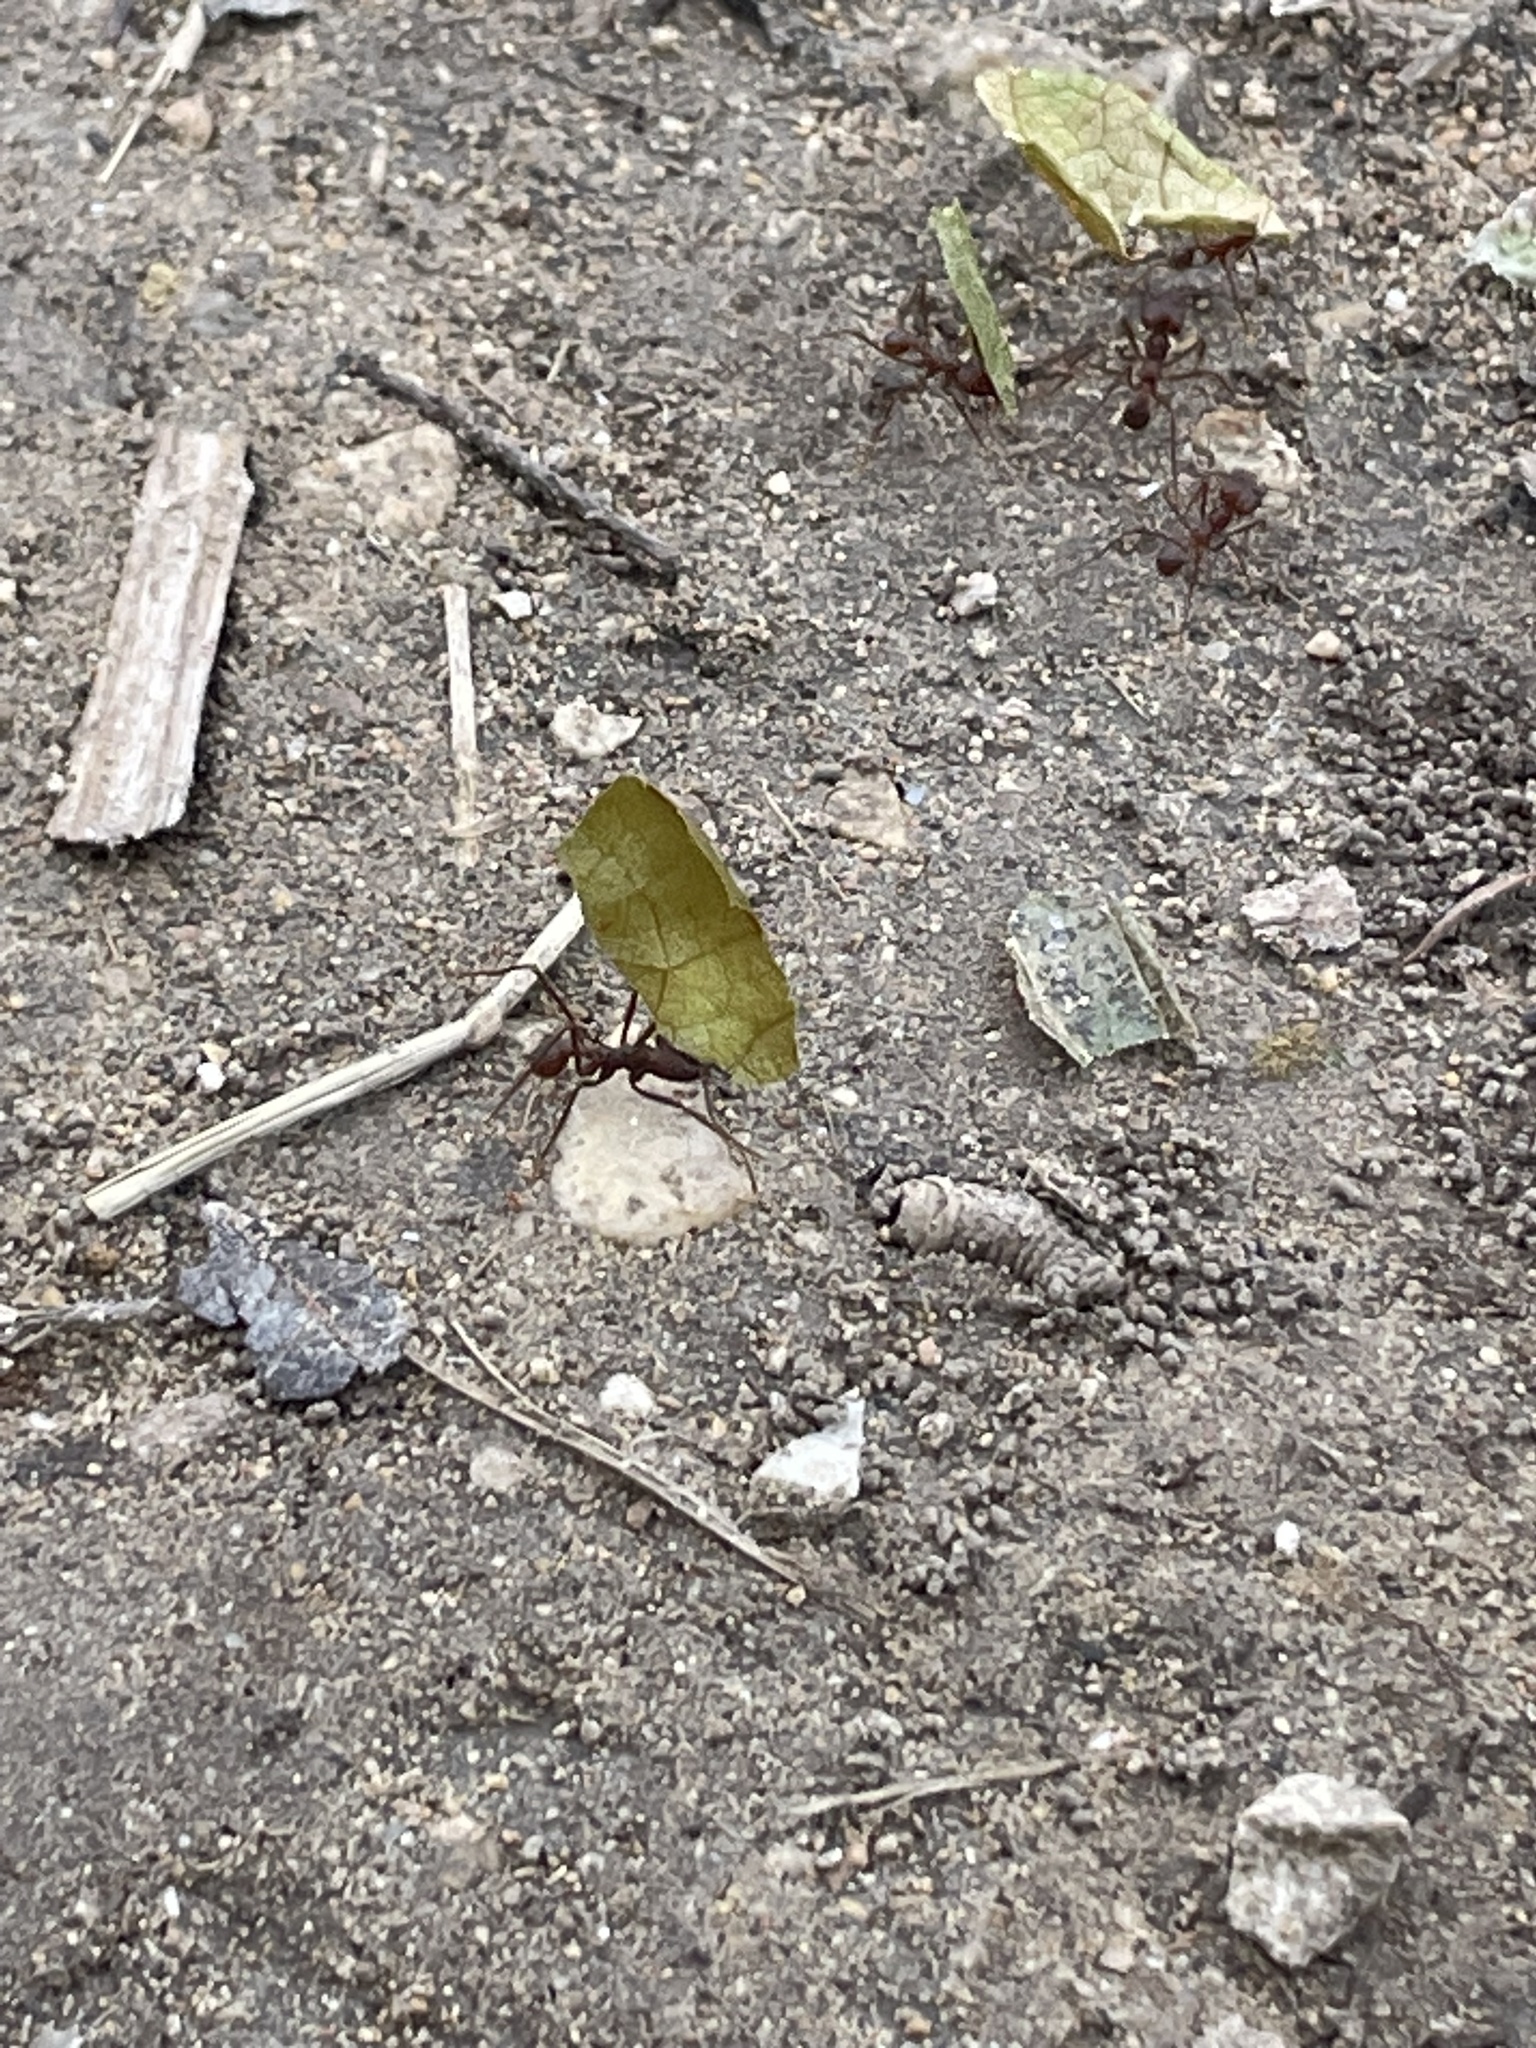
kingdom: Animalia
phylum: Arthropoda
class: Insecta
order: Hymenoptera
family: Formicidae
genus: Atta
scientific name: Atta texana
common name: Texas leafcutting ant
